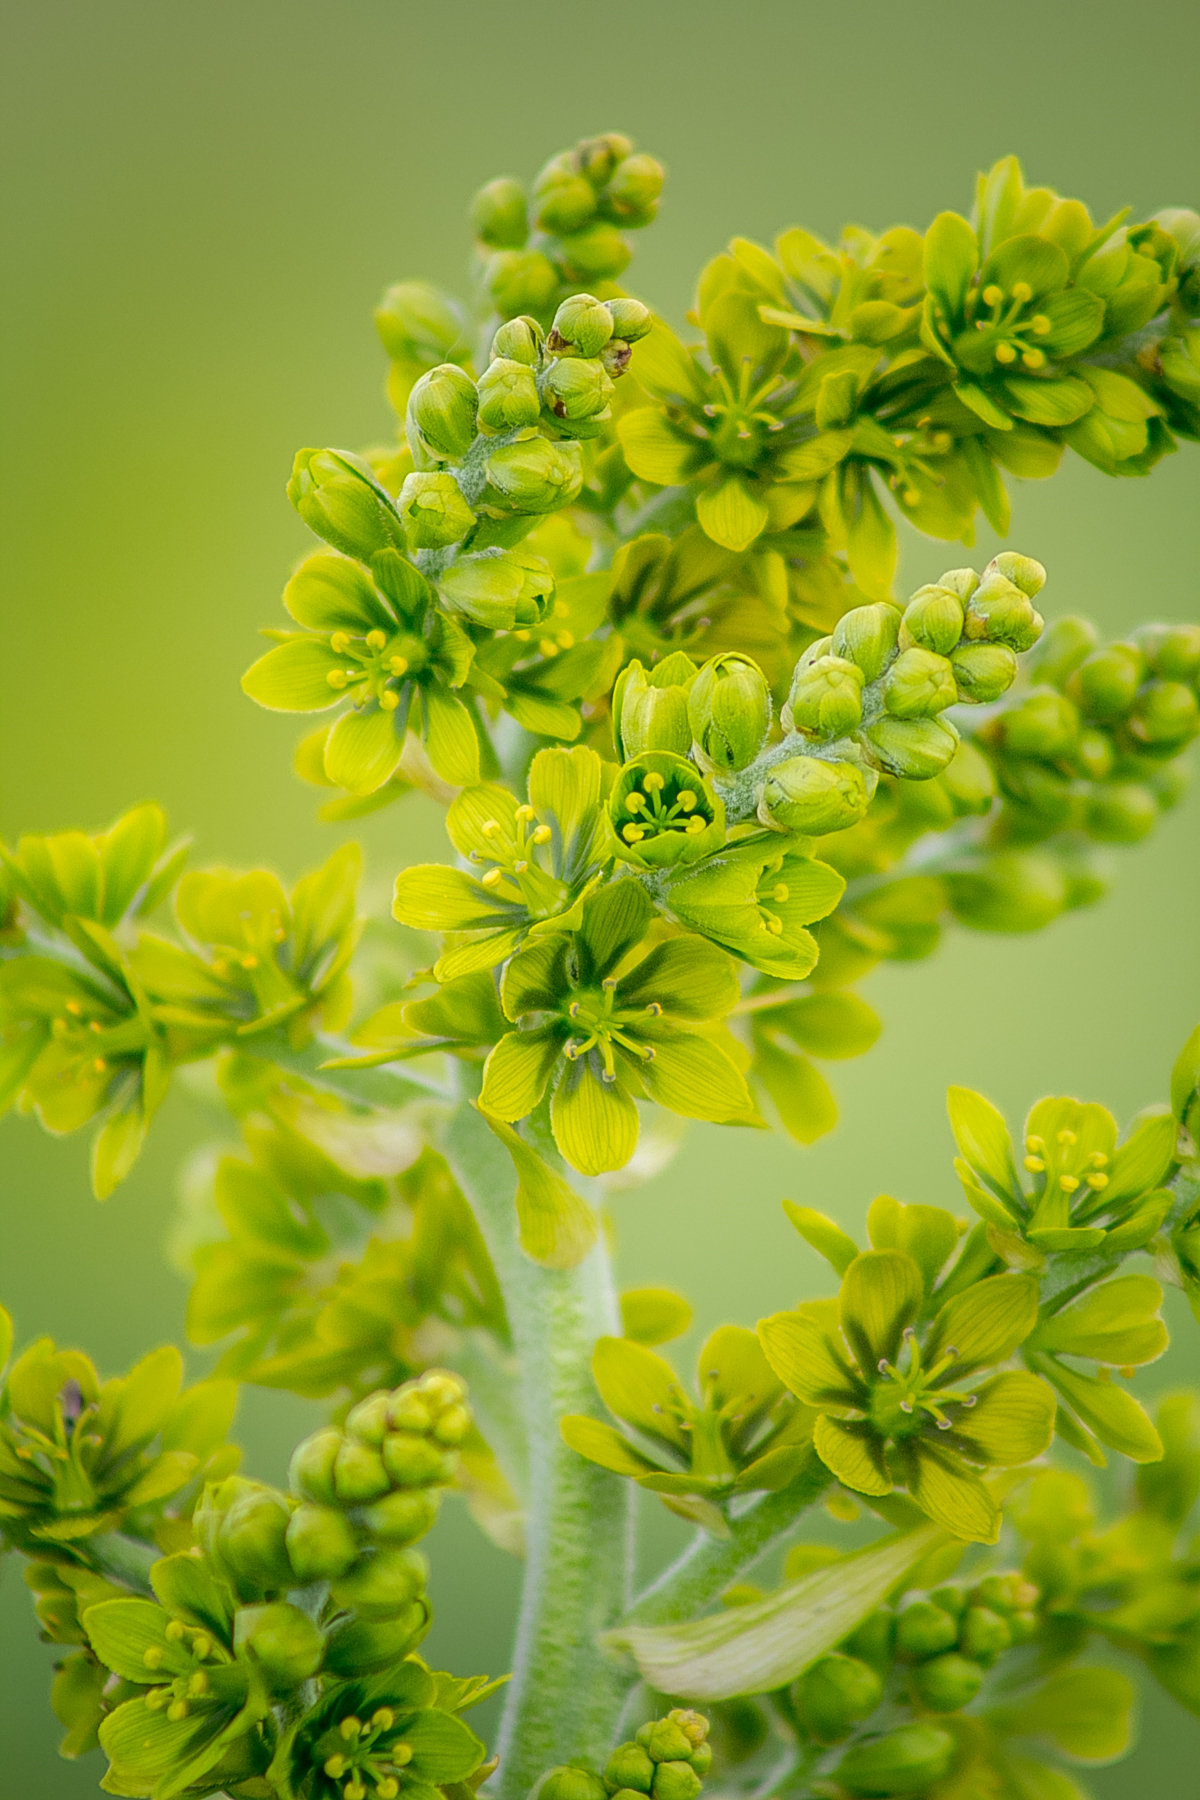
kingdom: Plantae
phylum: Tracheophyta
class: Liliopsida
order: Liliales
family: Melanthiaceae
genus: Veratrum
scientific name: Veratrum lobelianum
